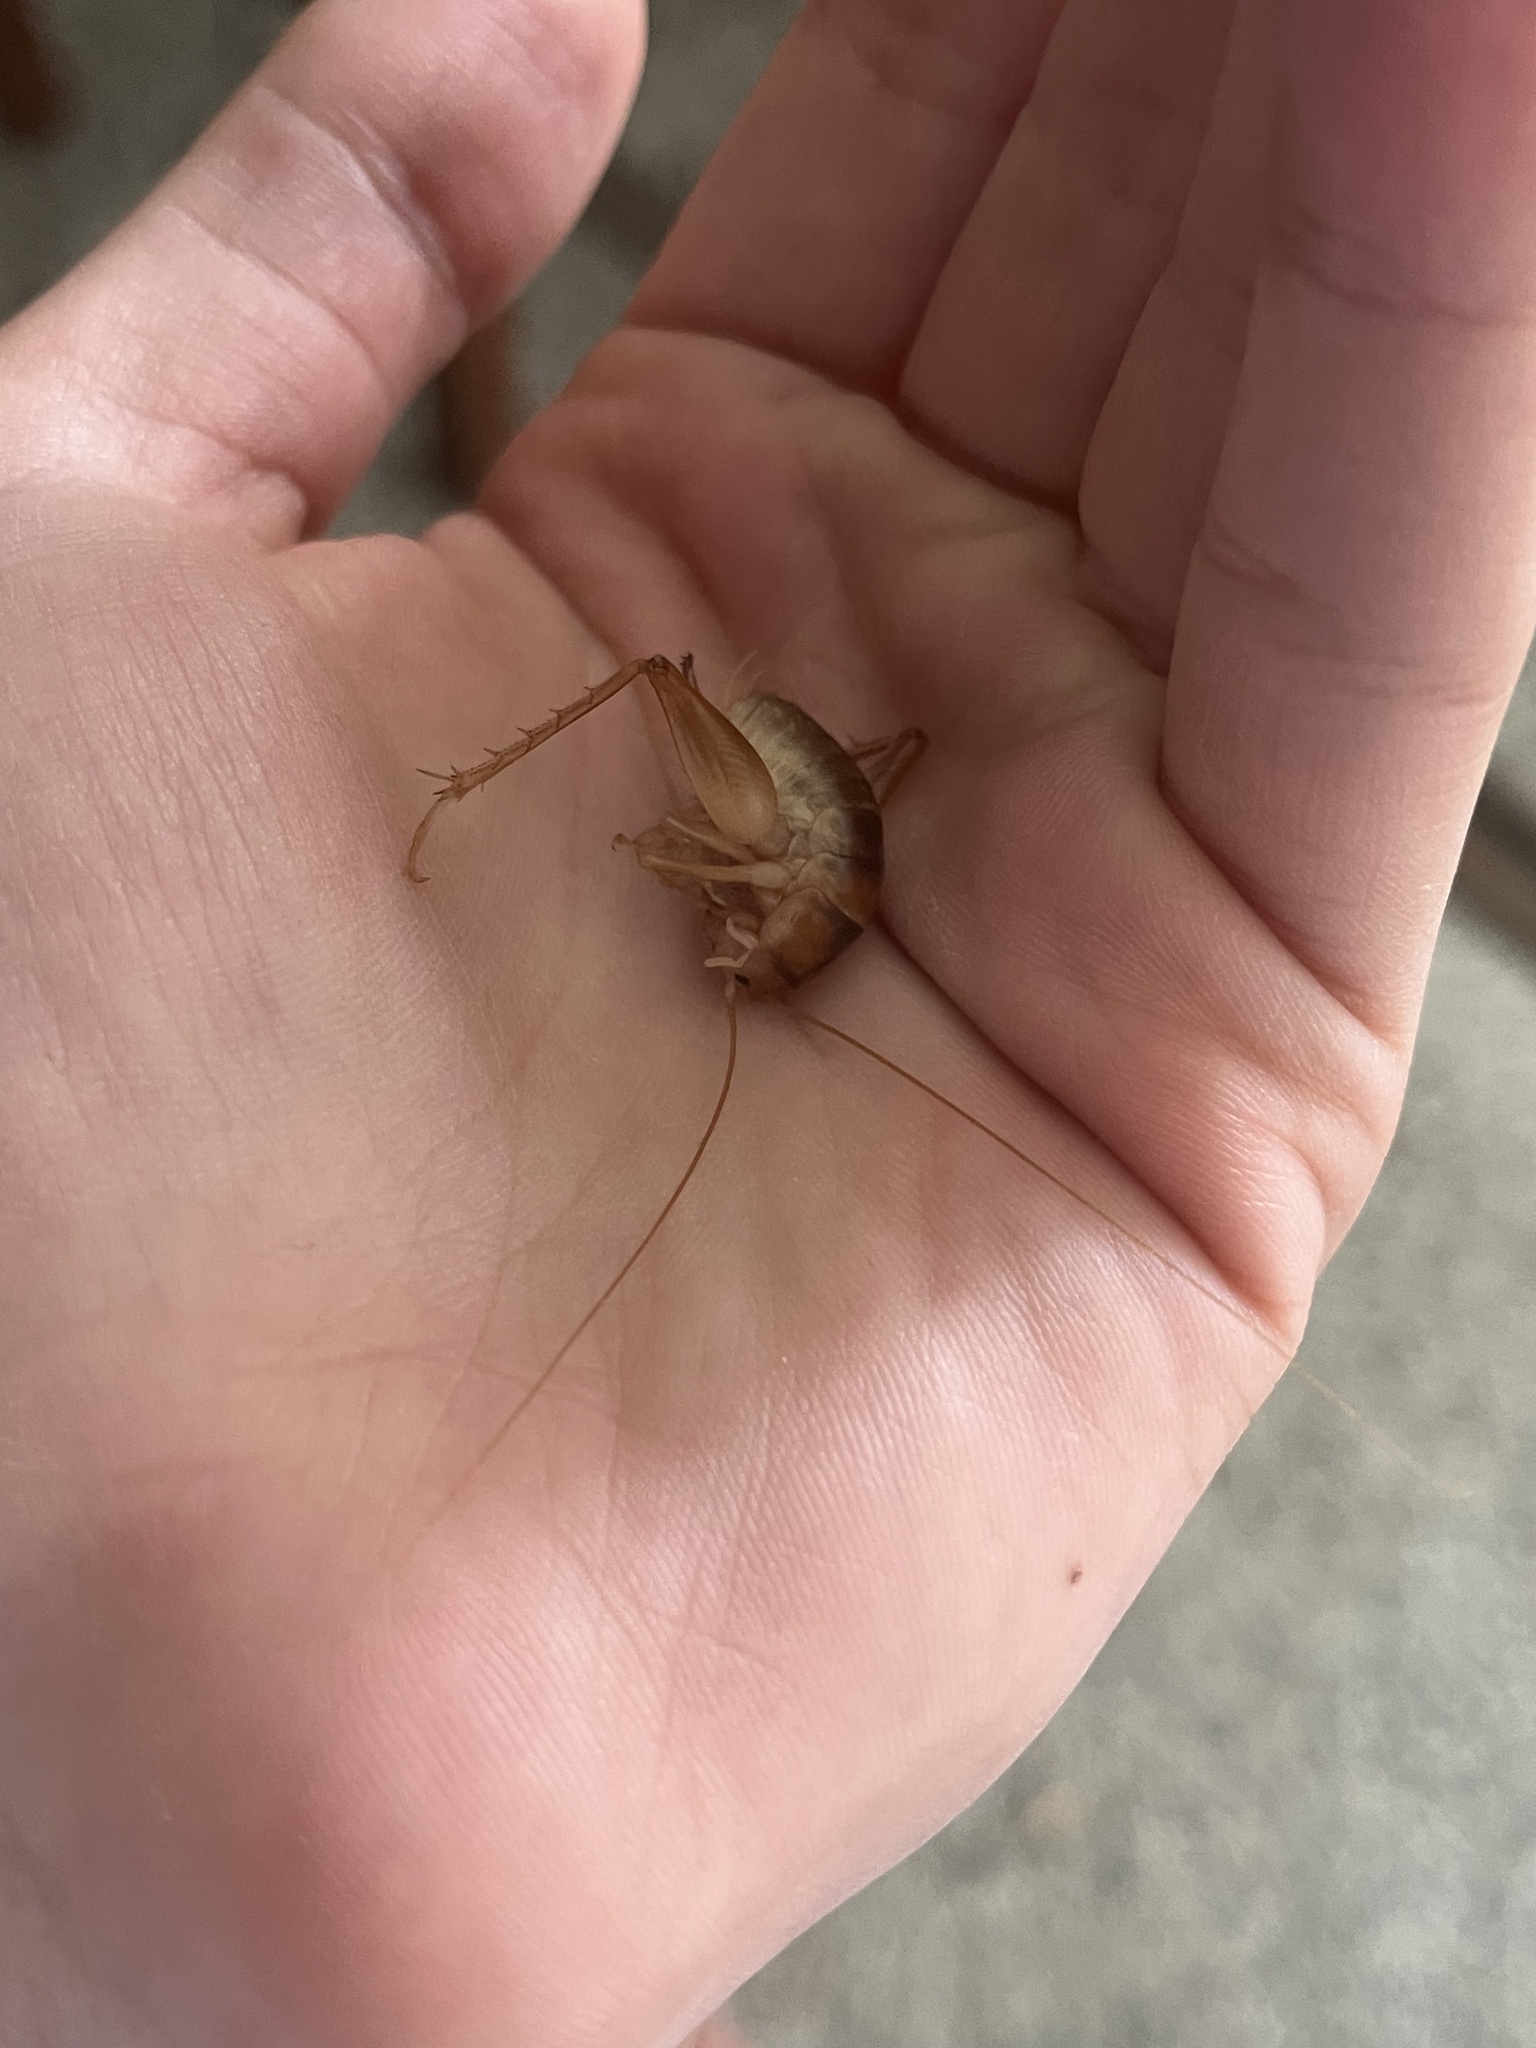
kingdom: Animalia
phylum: Arthropoda
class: Insecta
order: Orthoptera
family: Rhaphidophoridae
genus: Ceuthophilus
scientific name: Ceuthophilus californianus
